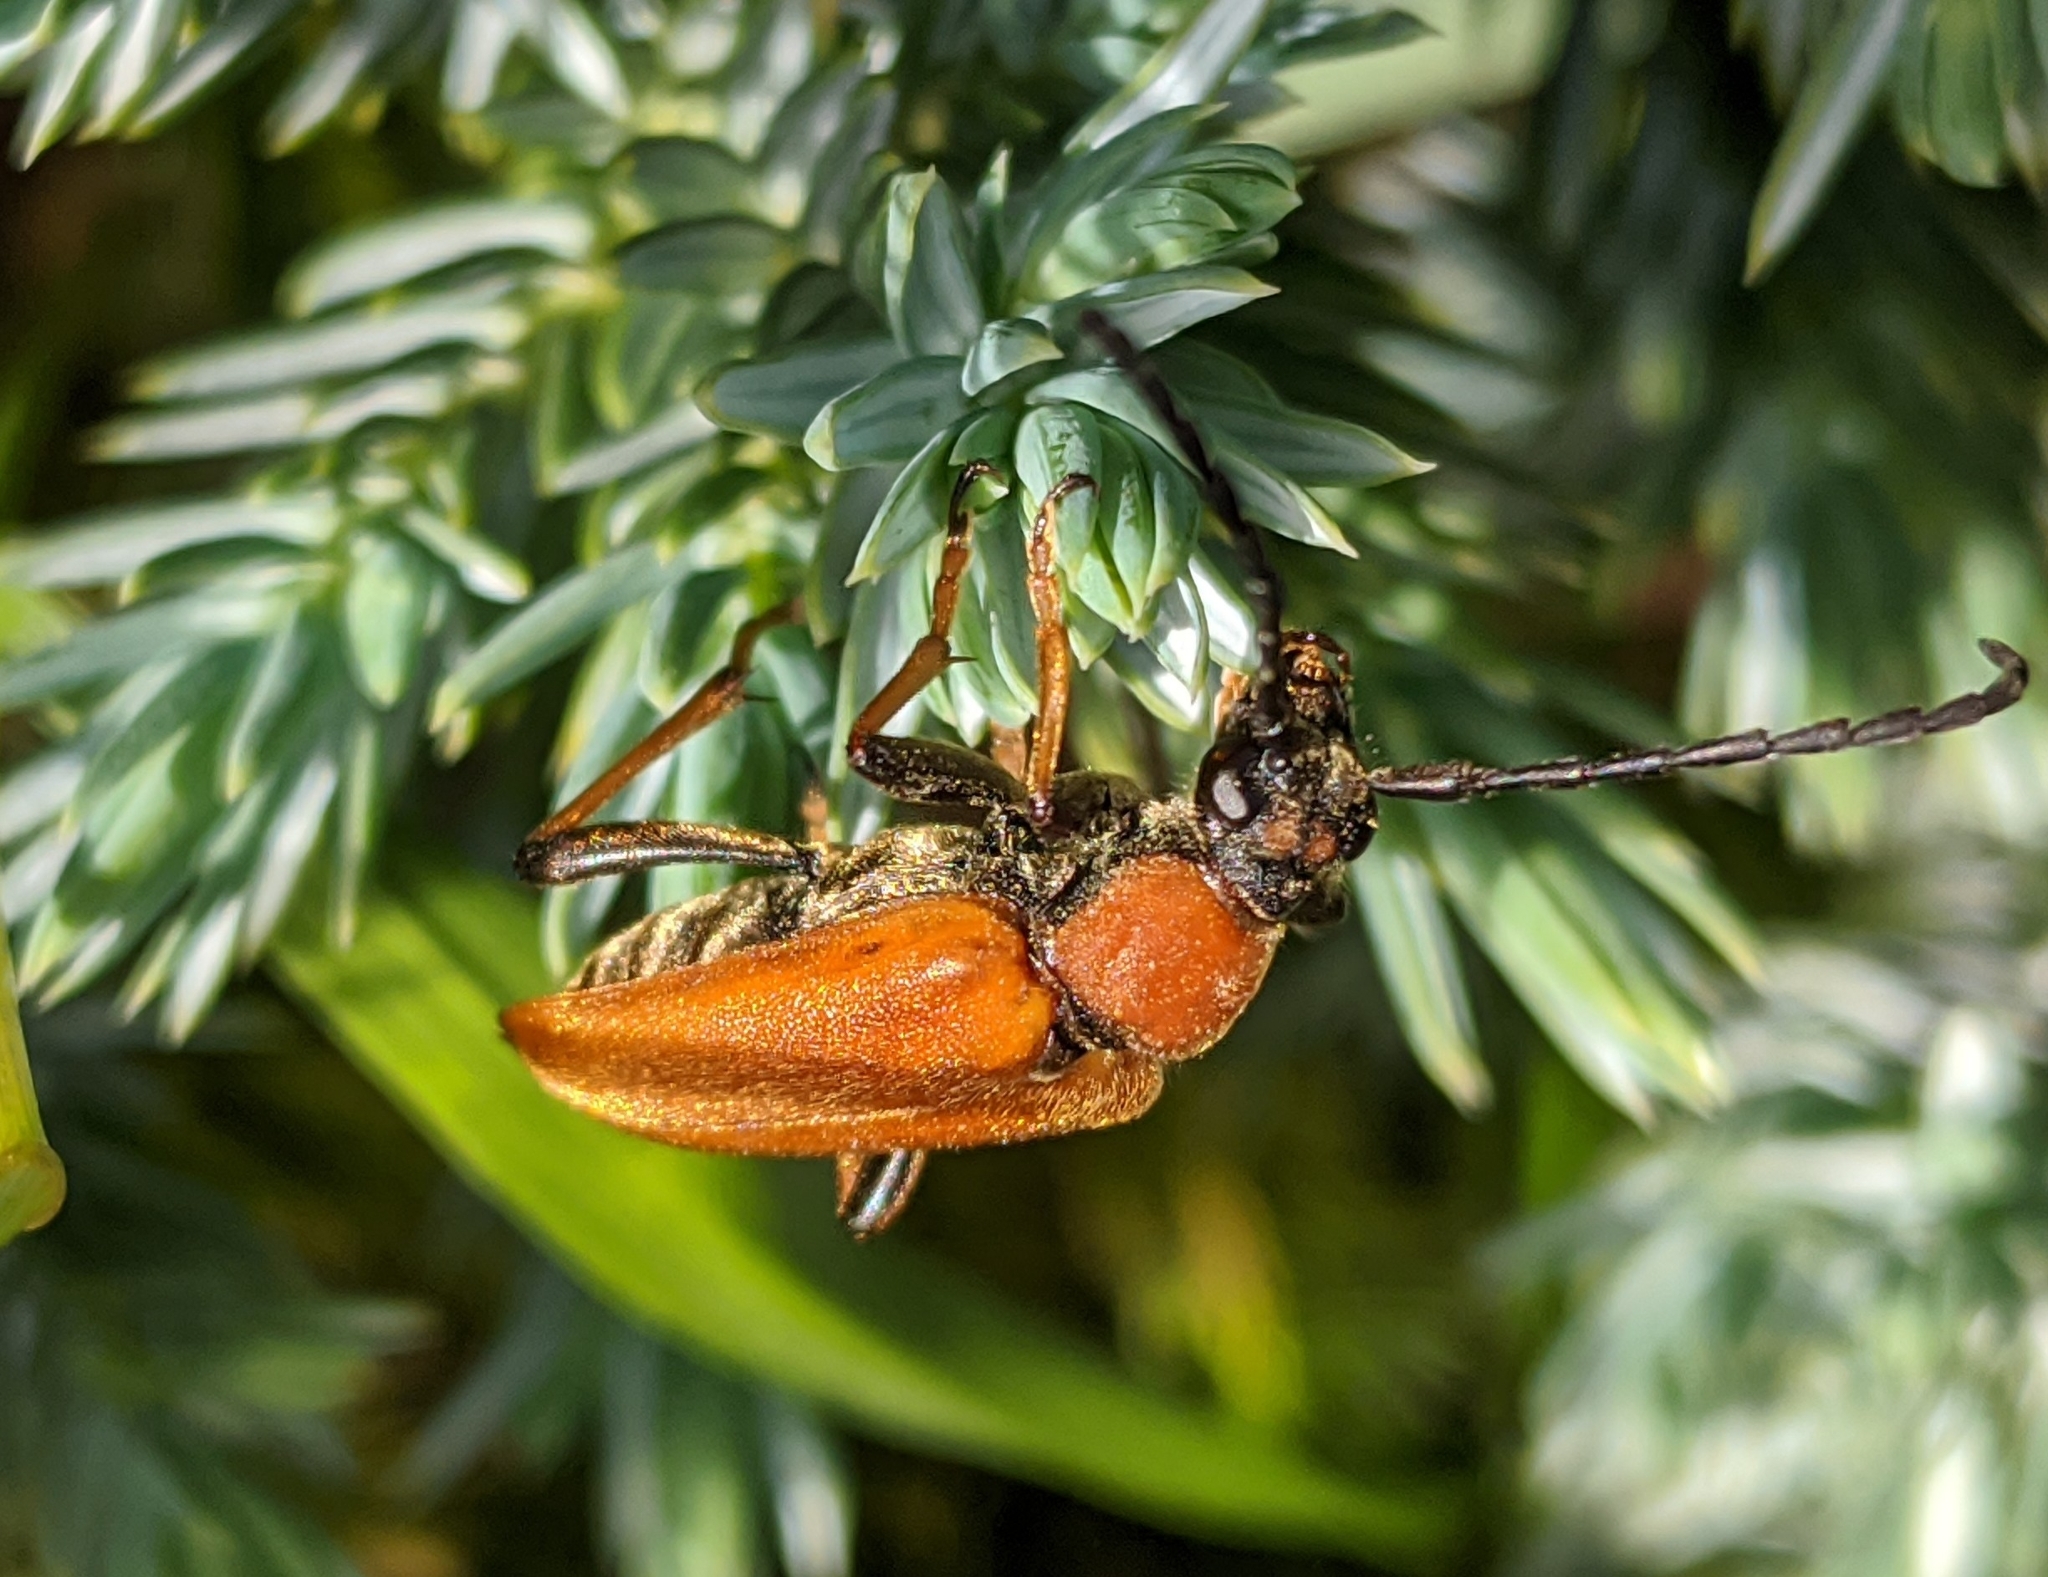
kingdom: Animalia
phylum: Arthropoda
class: Insecta
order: Coleoptera
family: Cerambycidae
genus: Stictoleptura
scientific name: Stictoleptura rubra
